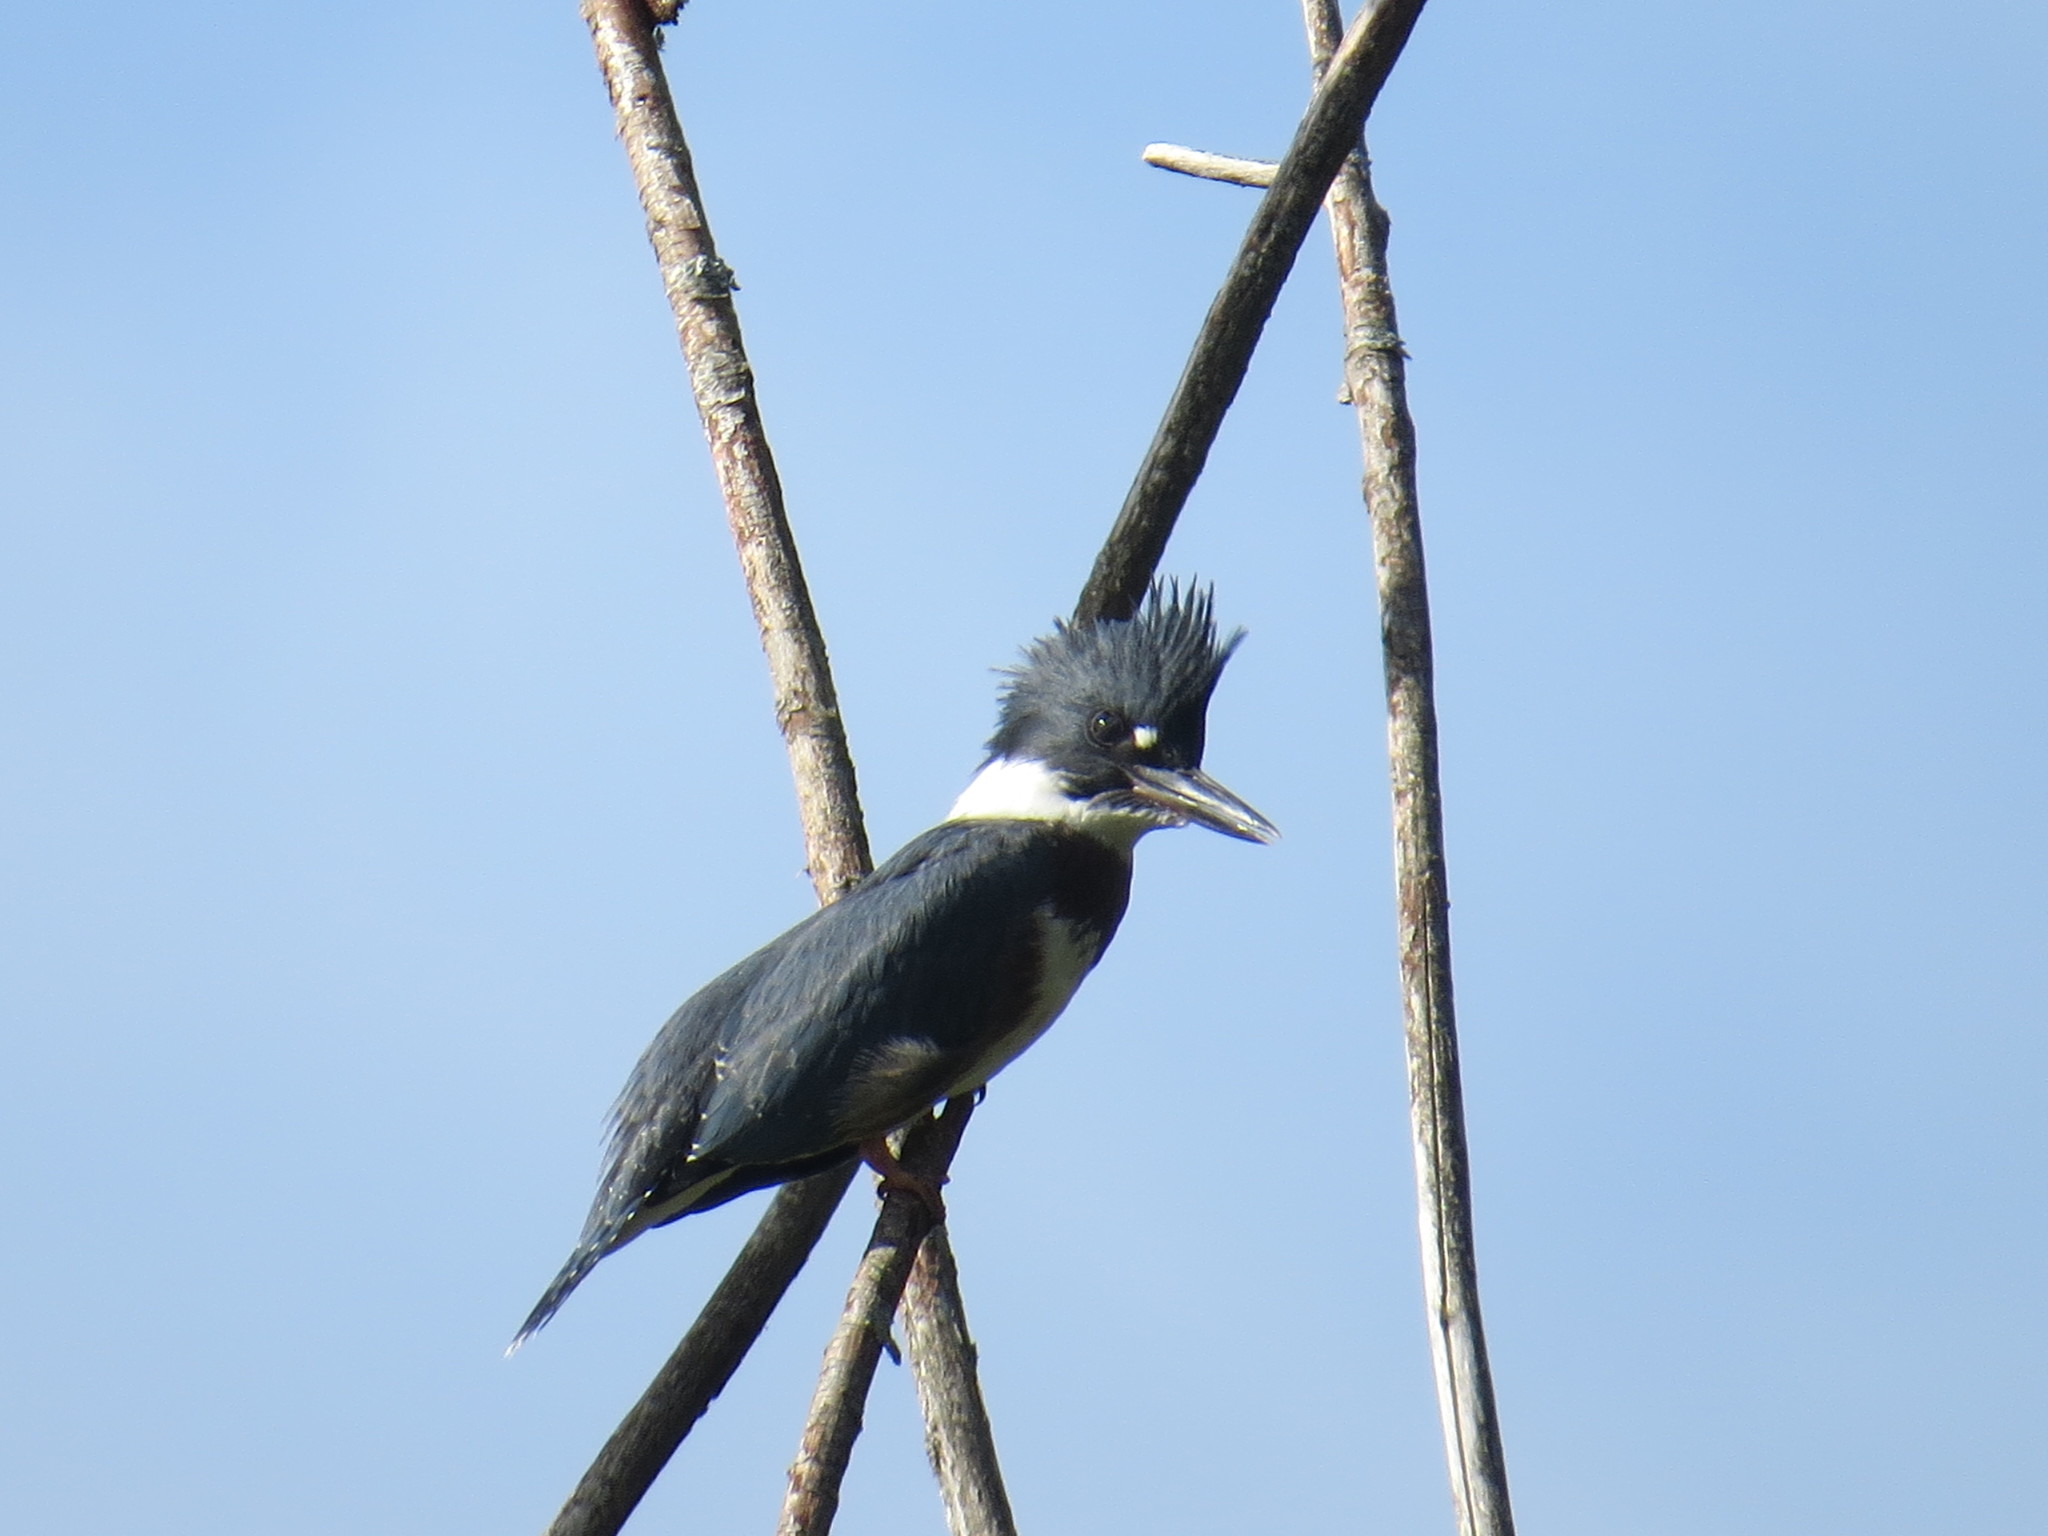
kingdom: Animalia
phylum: Chordata
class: Aves
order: Coraciiformes
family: Alcedinidae
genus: Megaceryle
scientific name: Megaceryle alcyon
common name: Belted kingfisher
